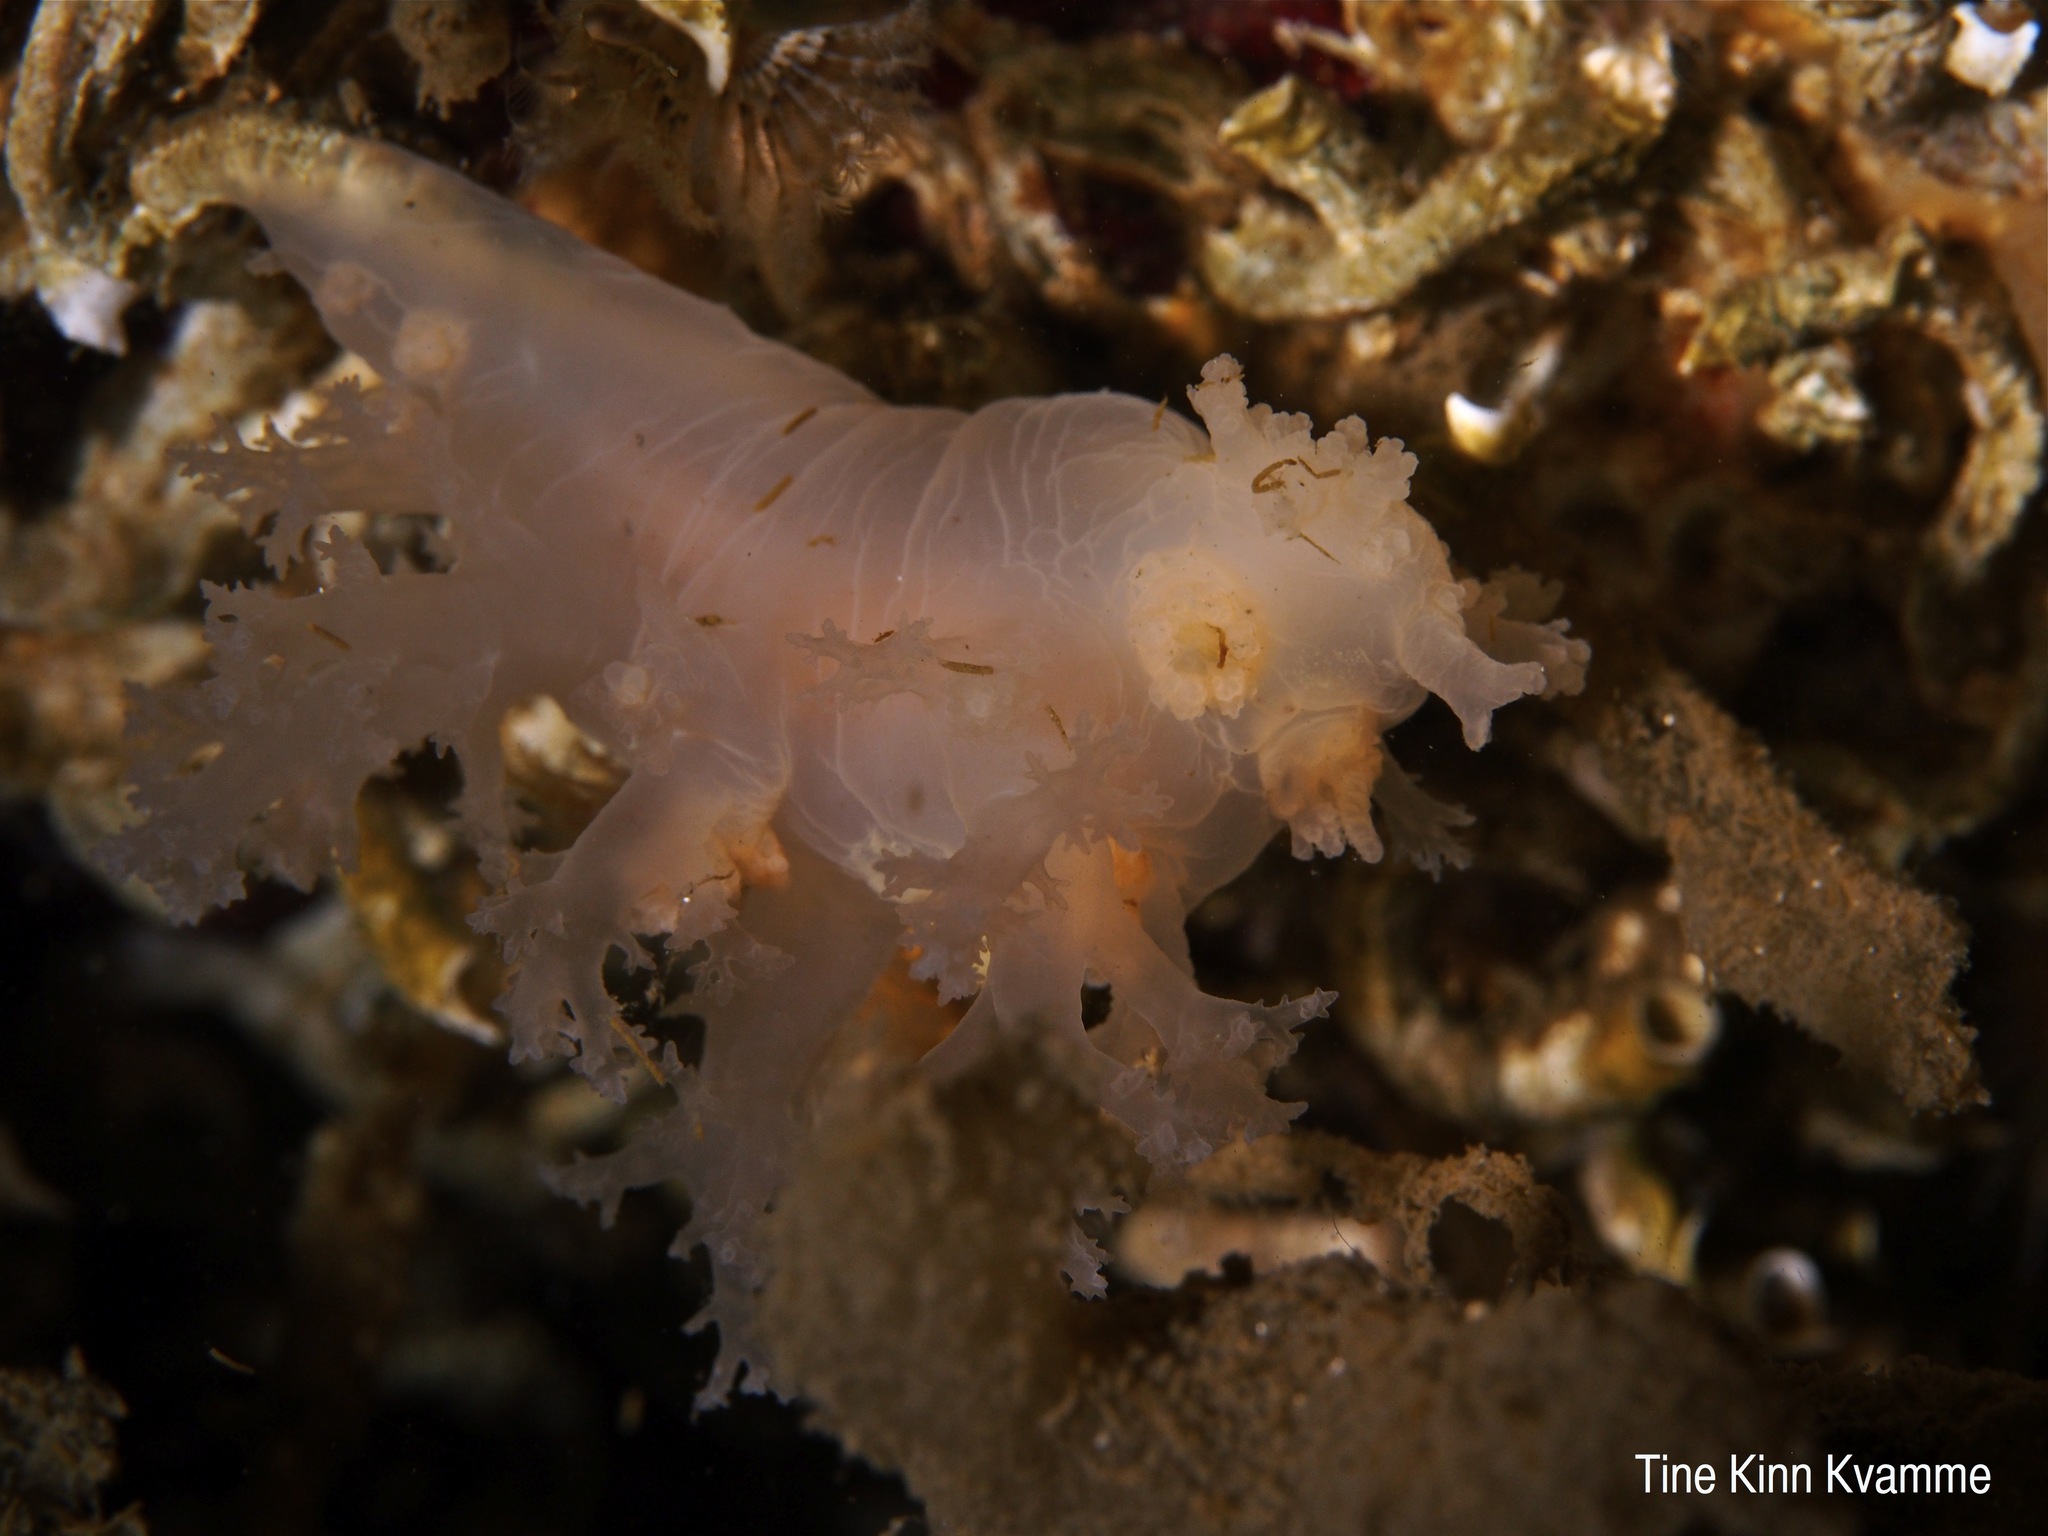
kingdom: Animalia
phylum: Mollusca
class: Gastropoda
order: Nudibranchia
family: Dendronotidae
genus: Dendronotus
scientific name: Dendronotus lacteus
